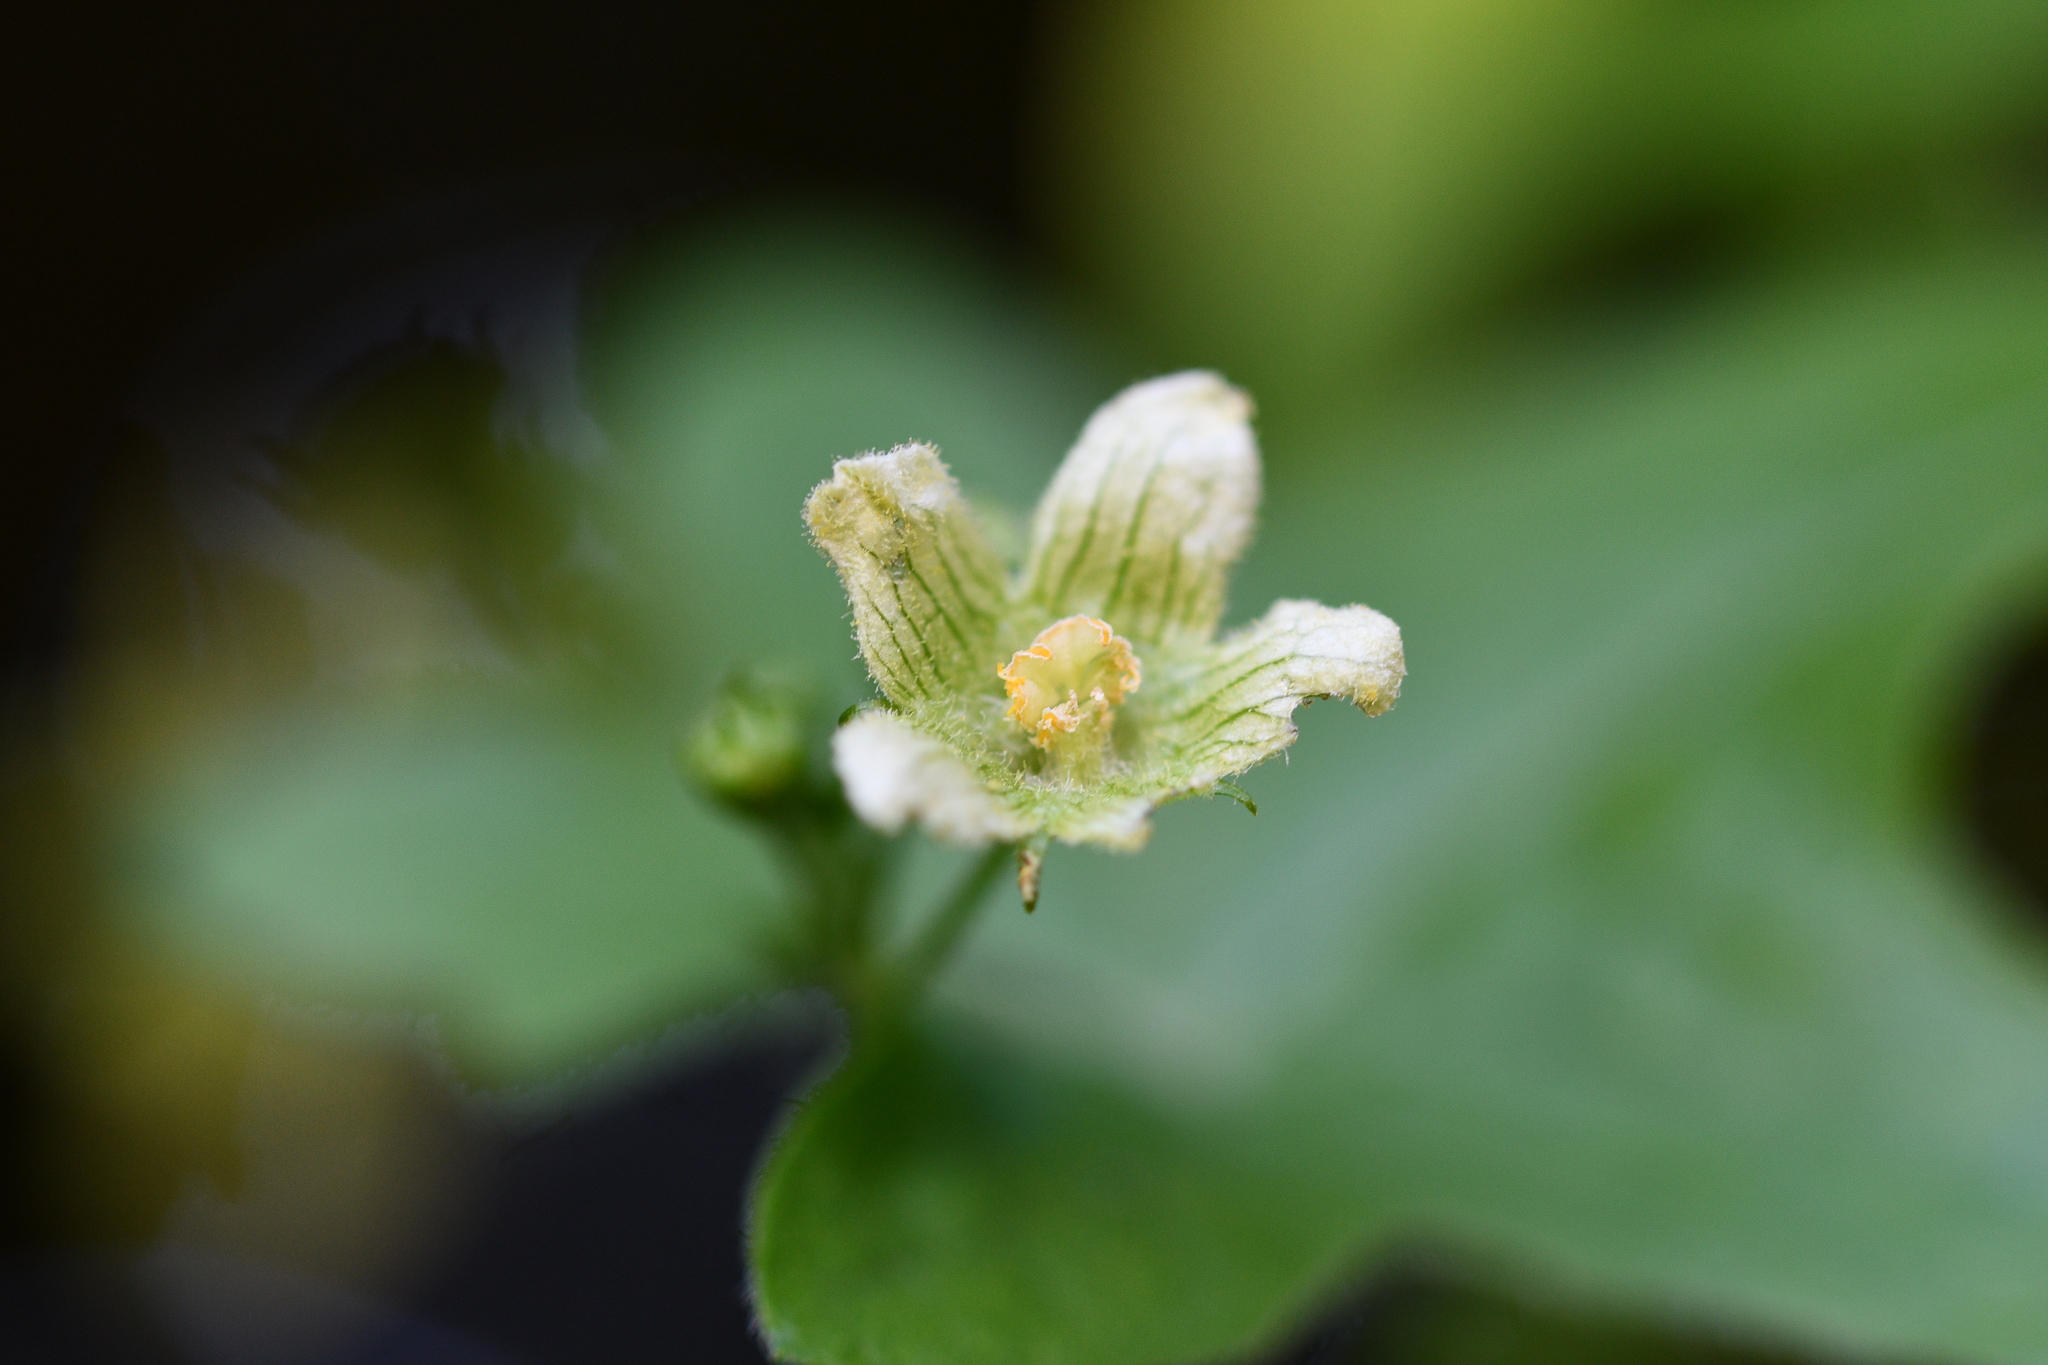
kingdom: Plantae
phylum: Tracheophyta
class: Magnoliopsida
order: Cucurbitales
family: Cucurbitaceae
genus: Bryonia
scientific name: Bryonia dioica
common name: White bryony
